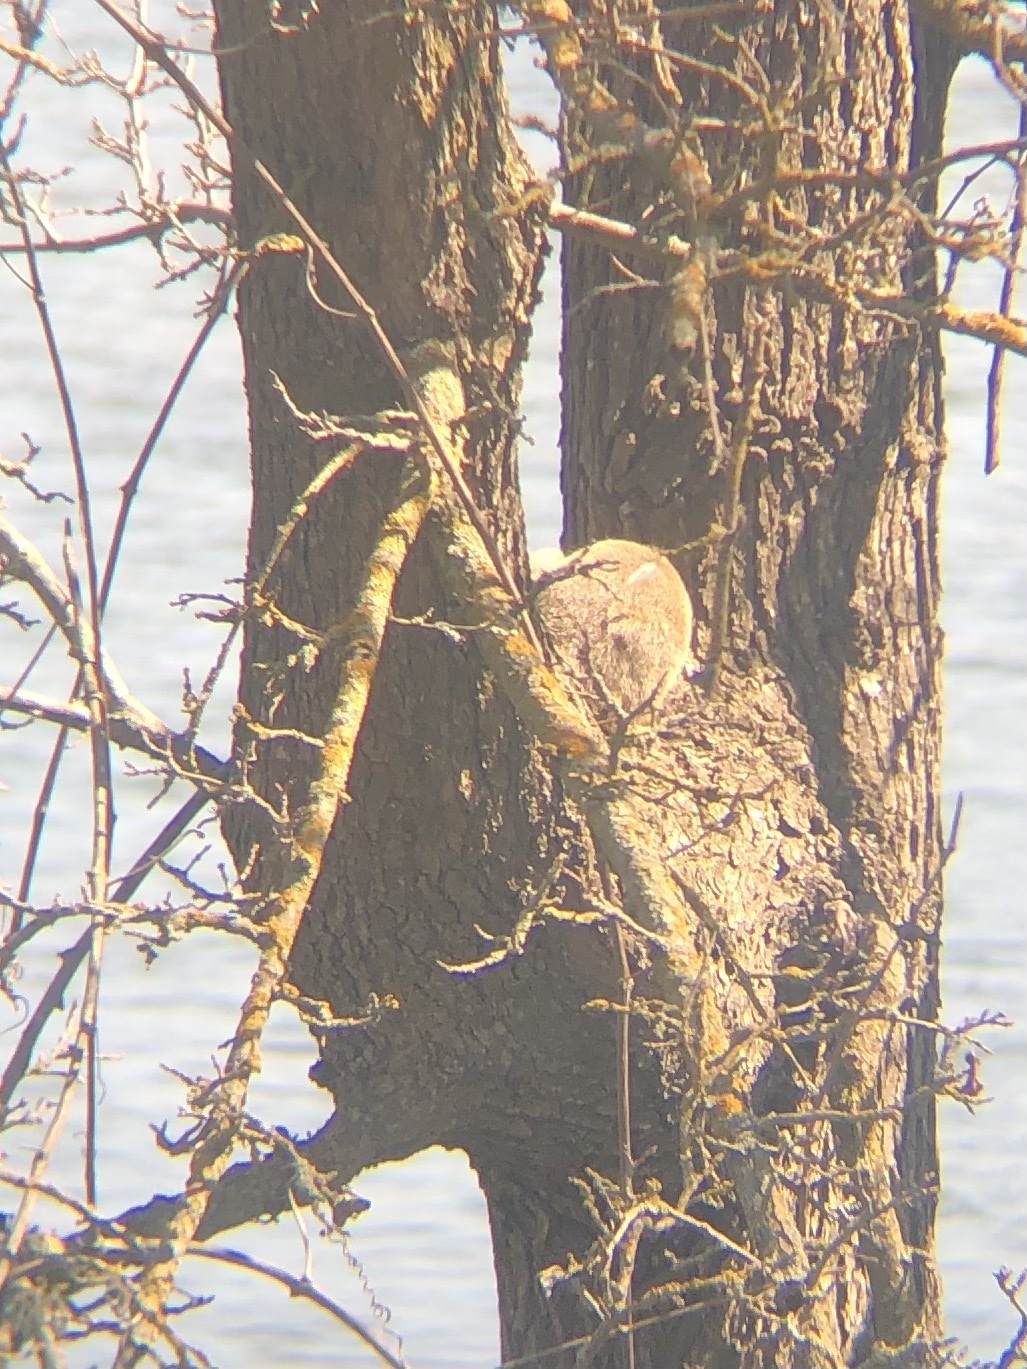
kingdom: Animalia
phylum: Chordata
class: Mammalia
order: Rodentia
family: Sciuridae
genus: Sciurus
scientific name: Sciurus niger
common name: Fox squirrel
